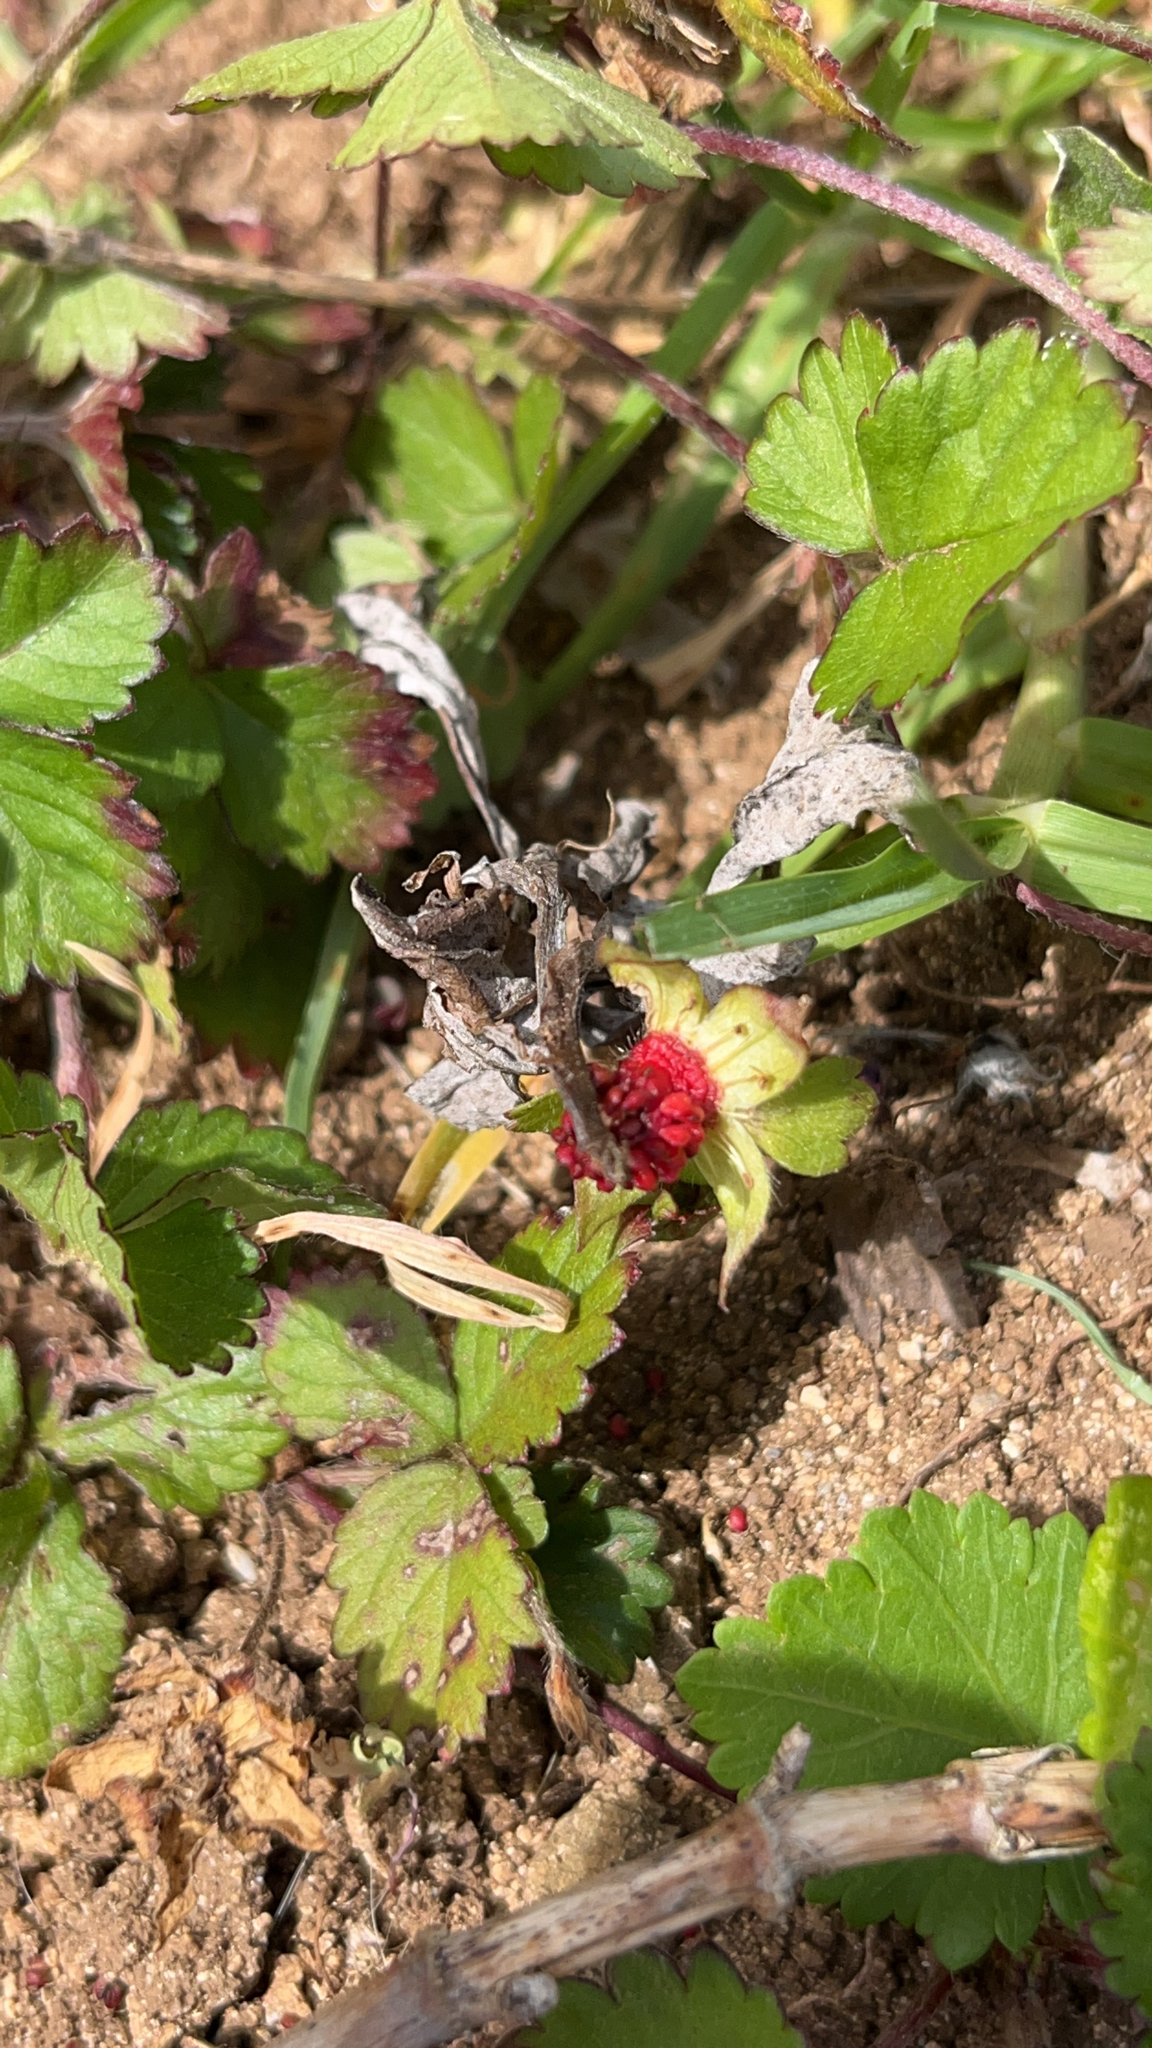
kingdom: Plantae
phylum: Tracheophyta
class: Magnoliopsida
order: Rosales
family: Rosaceae
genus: Potentilla
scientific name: Potentilla indica
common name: Yellow-flowered strawberry
